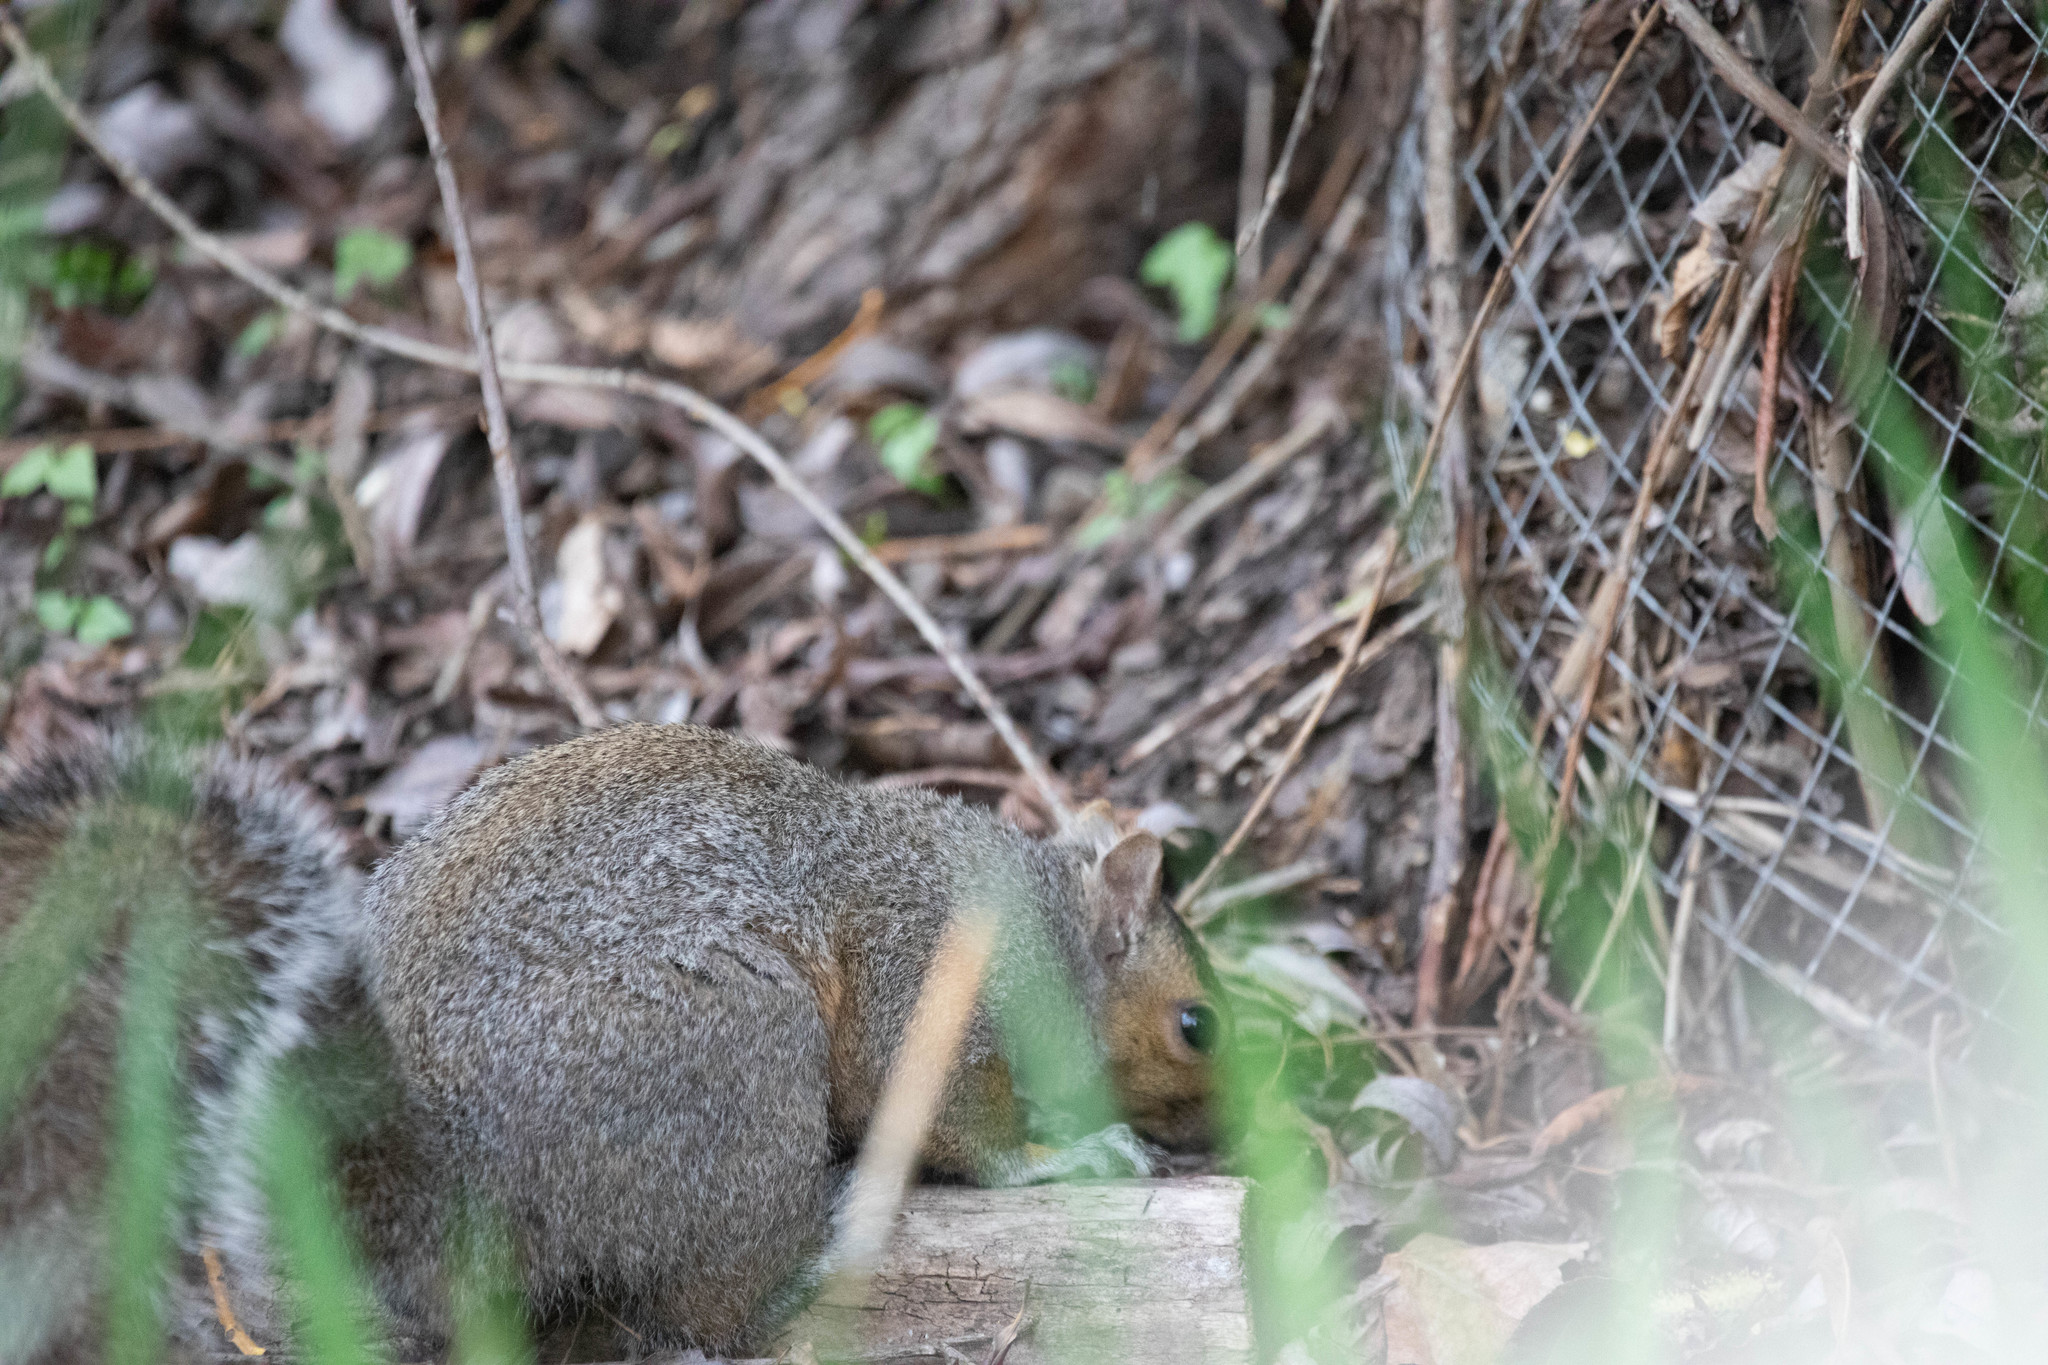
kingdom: Animalia
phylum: Chordata
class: Mammalia
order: Rodentia
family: Sciuridae
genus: Sciurus
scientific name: Sciurus carolinensis
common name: Eastern gray squirrel
